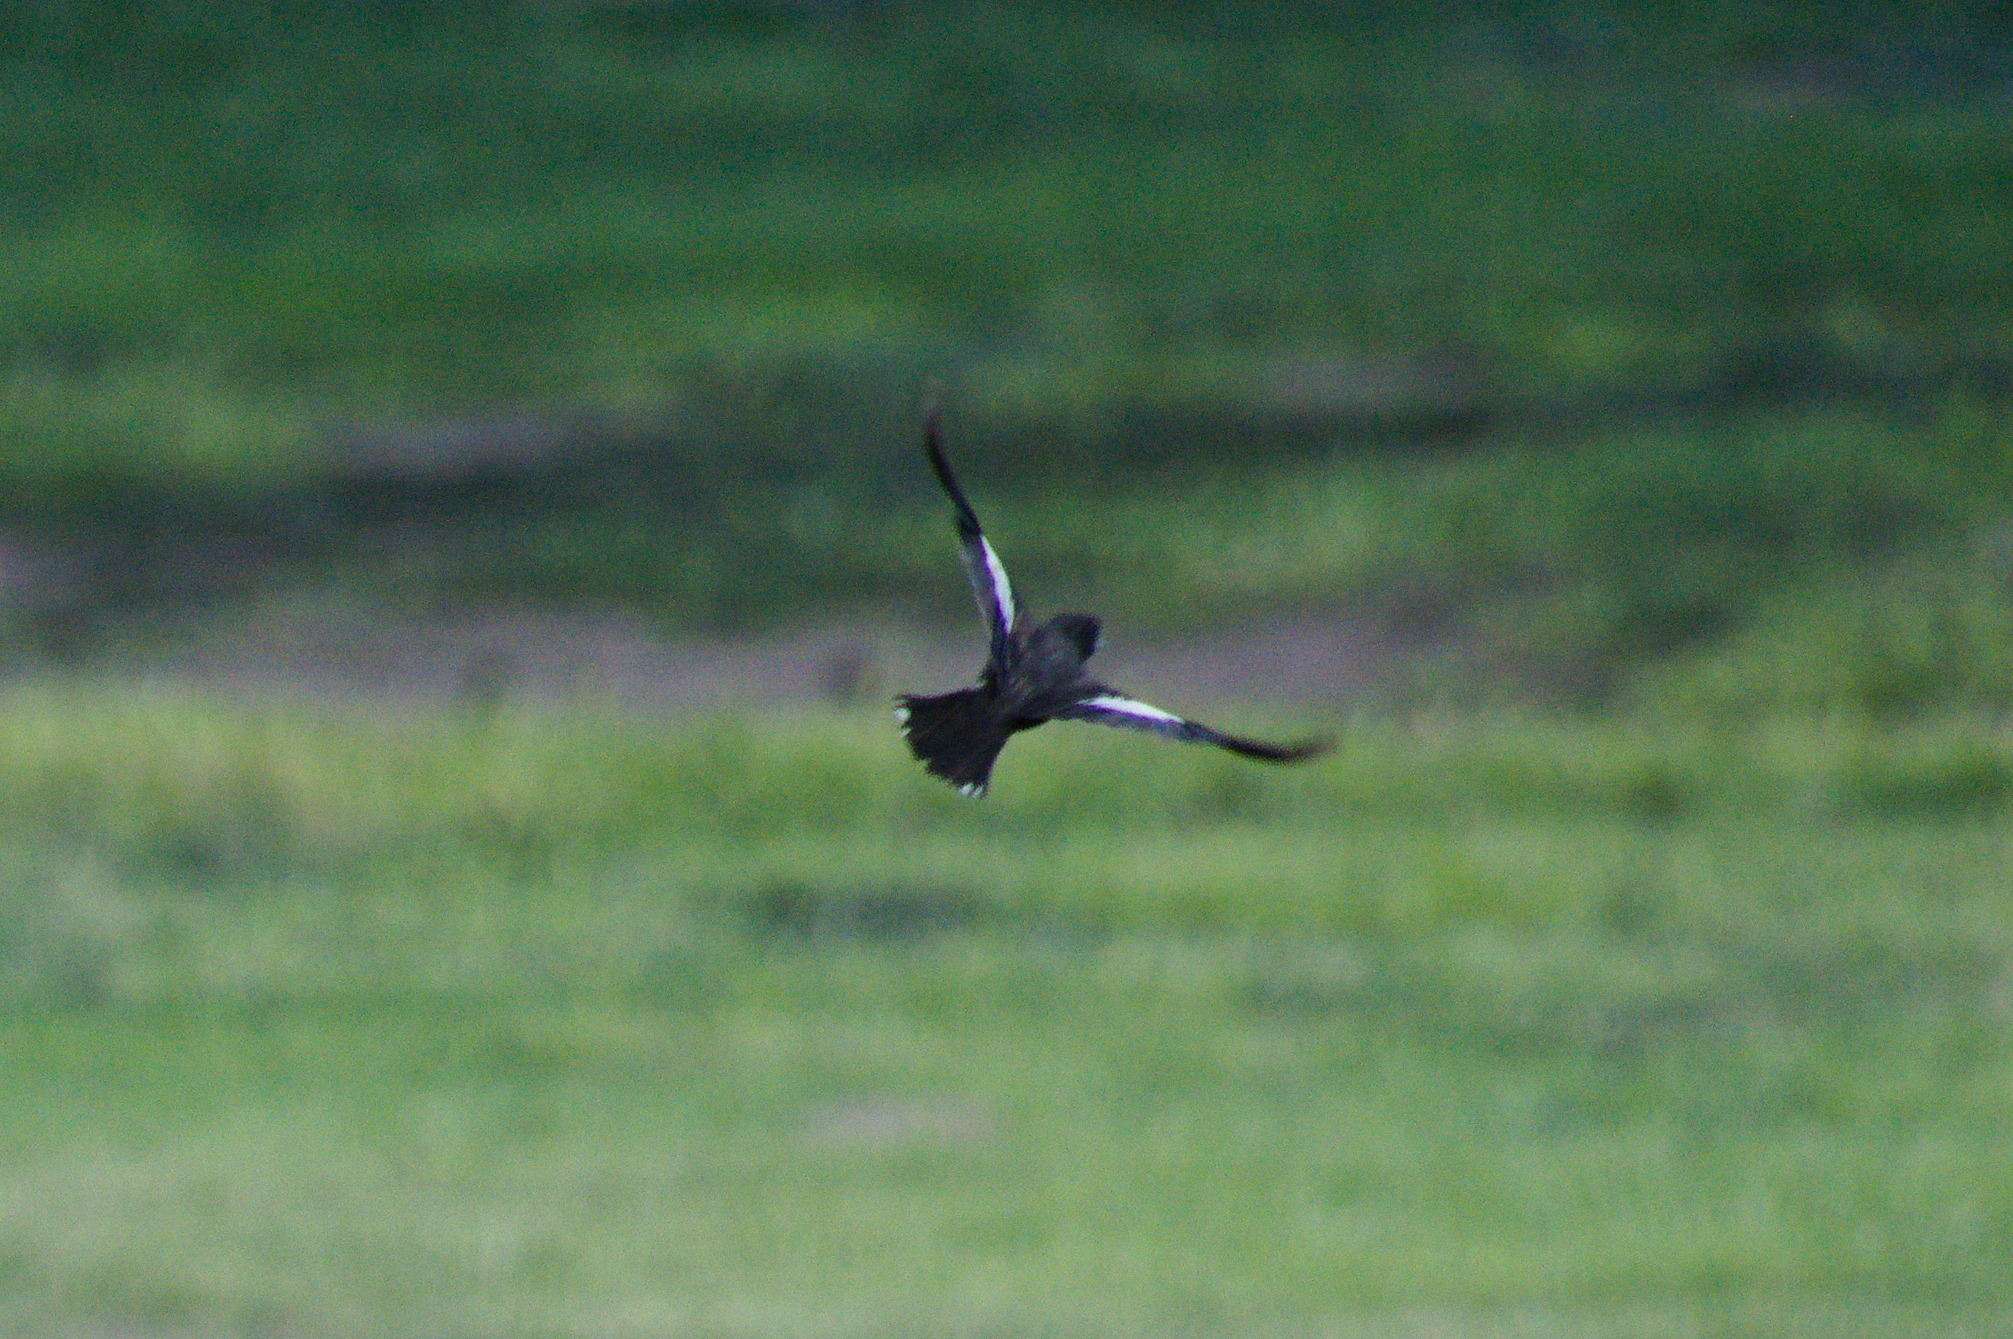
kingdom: Animalia
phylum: Chordata
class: Aves
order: Passeriformes
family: Passerellidae
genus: Calamospiza
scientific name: Calamospiza melanocorys
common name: Lark bunting
